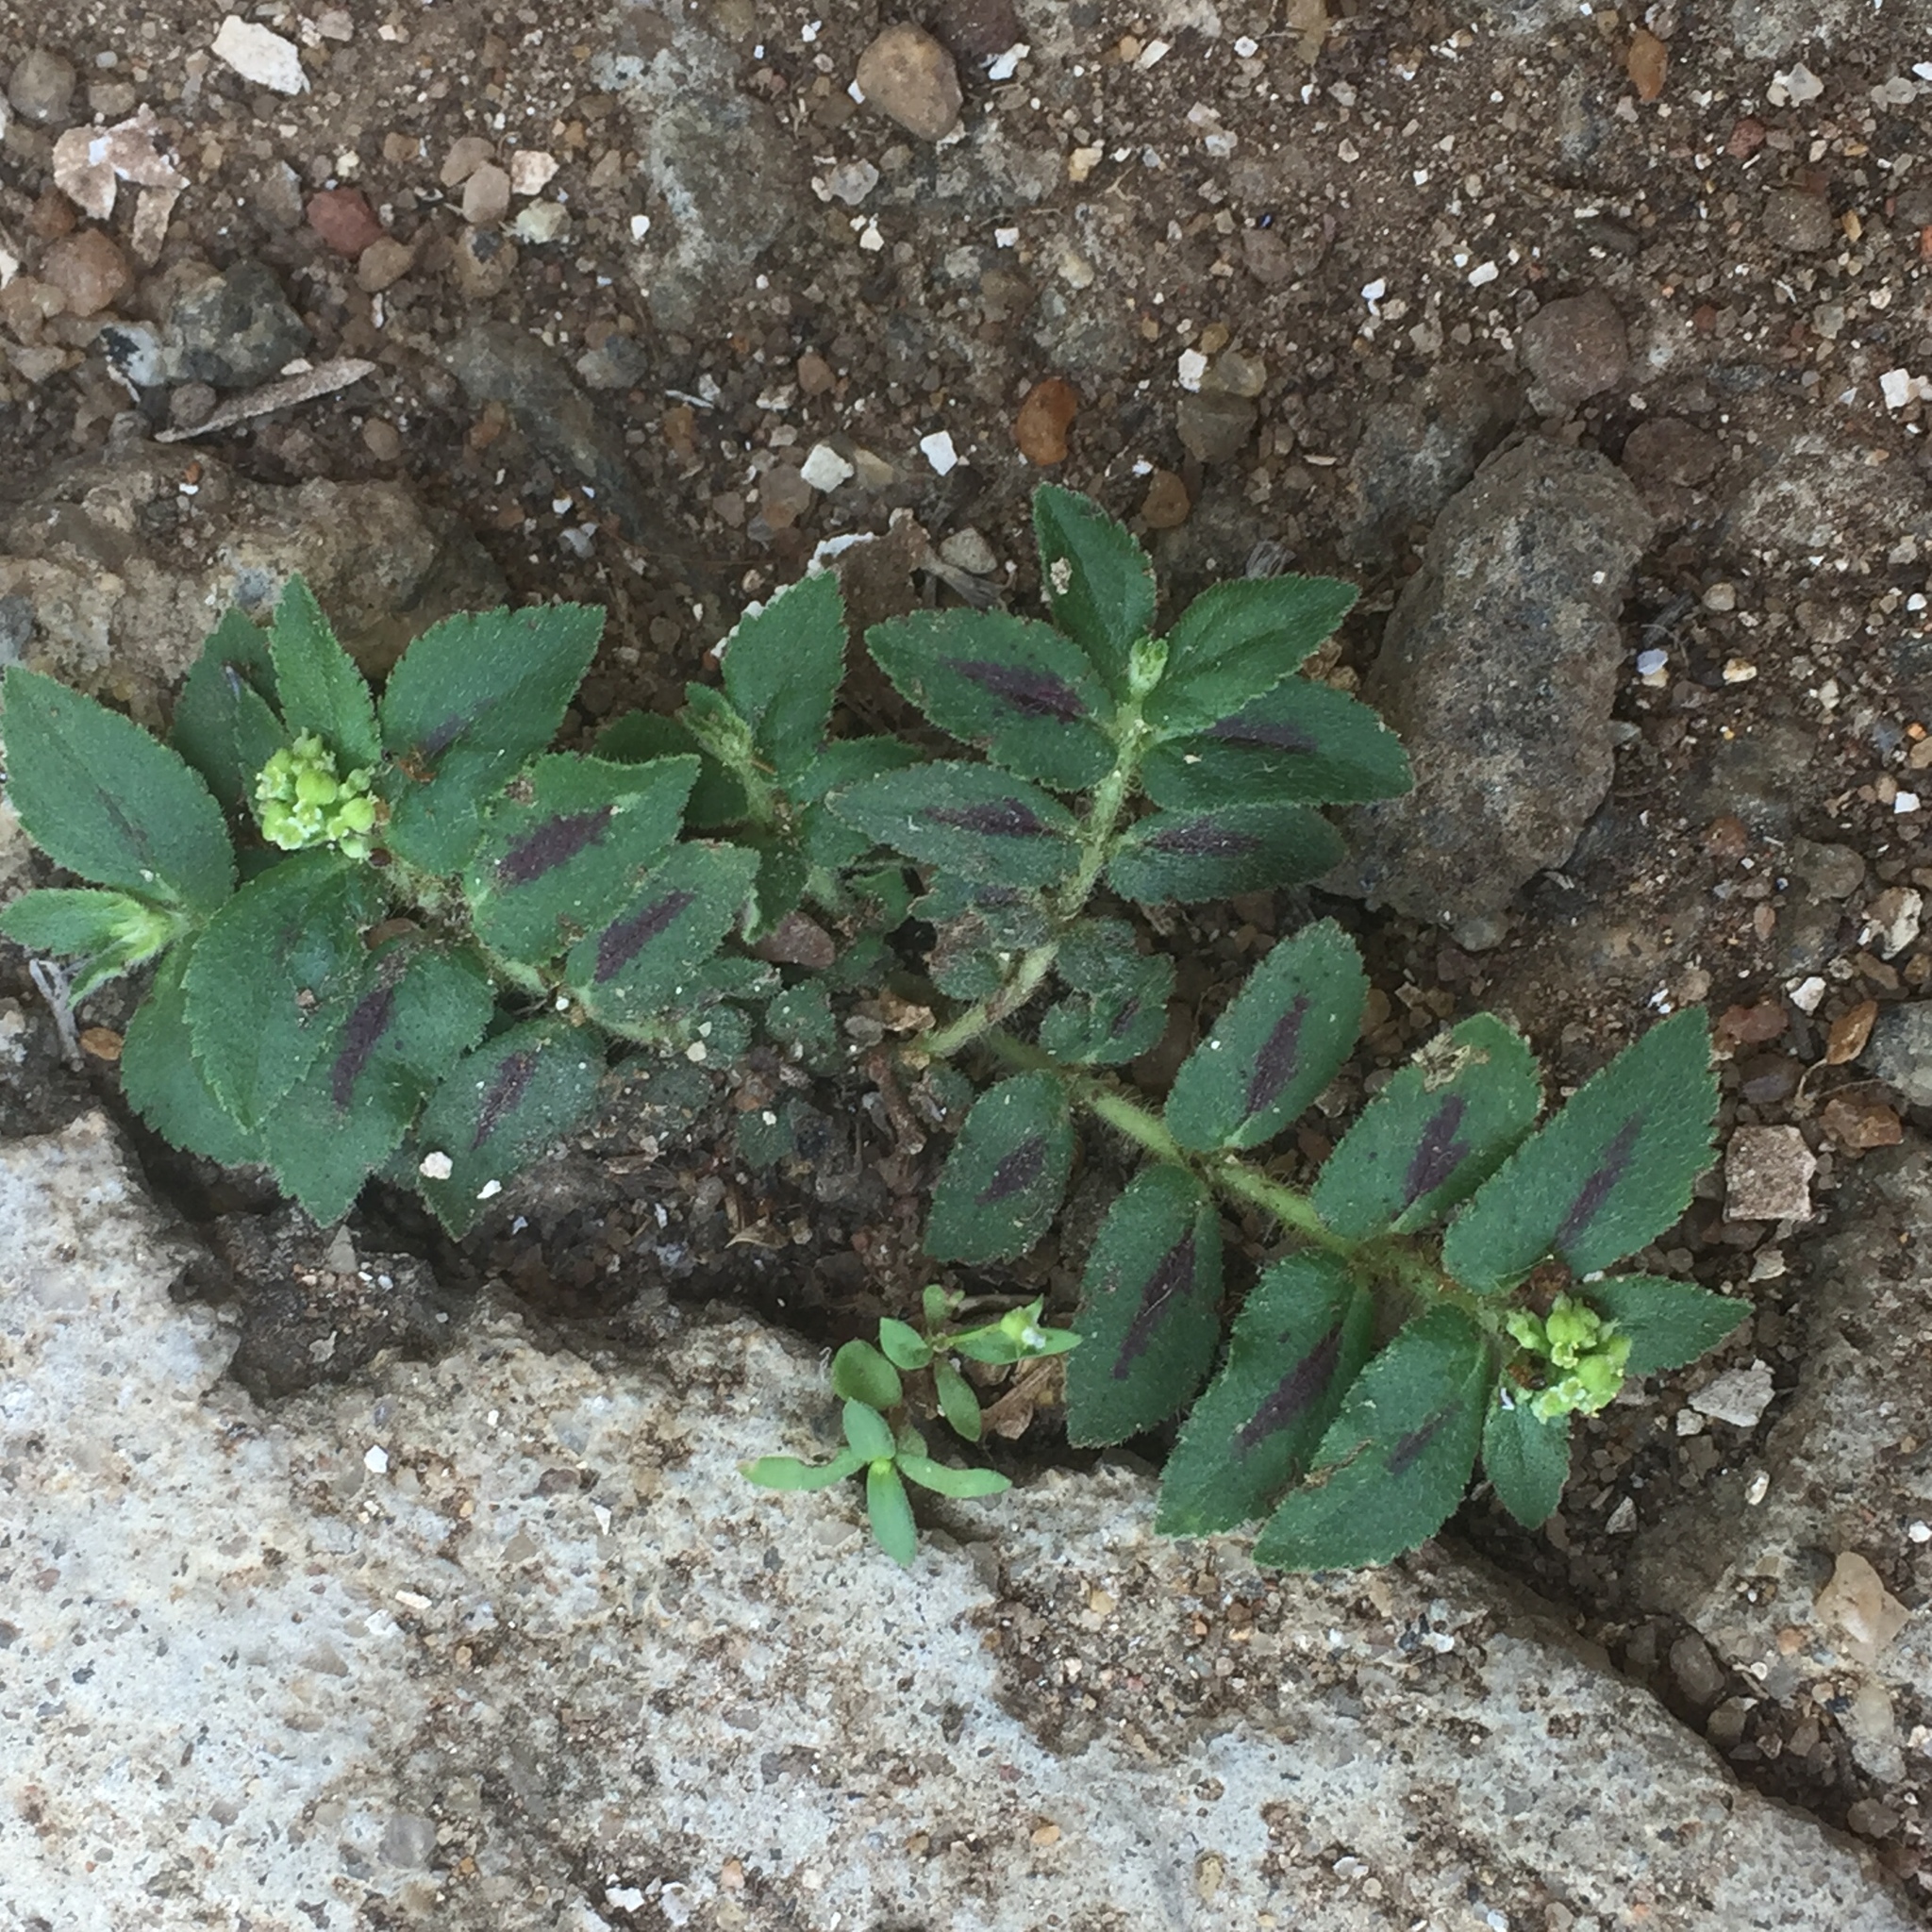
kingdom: Plantae
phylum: Tracheophyta
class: Magnoliopsida
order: Malpighiales
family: Euphorbiaceae
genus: Euphorbia
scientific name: Euphorbia hirta
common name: Pillpod sandmat
